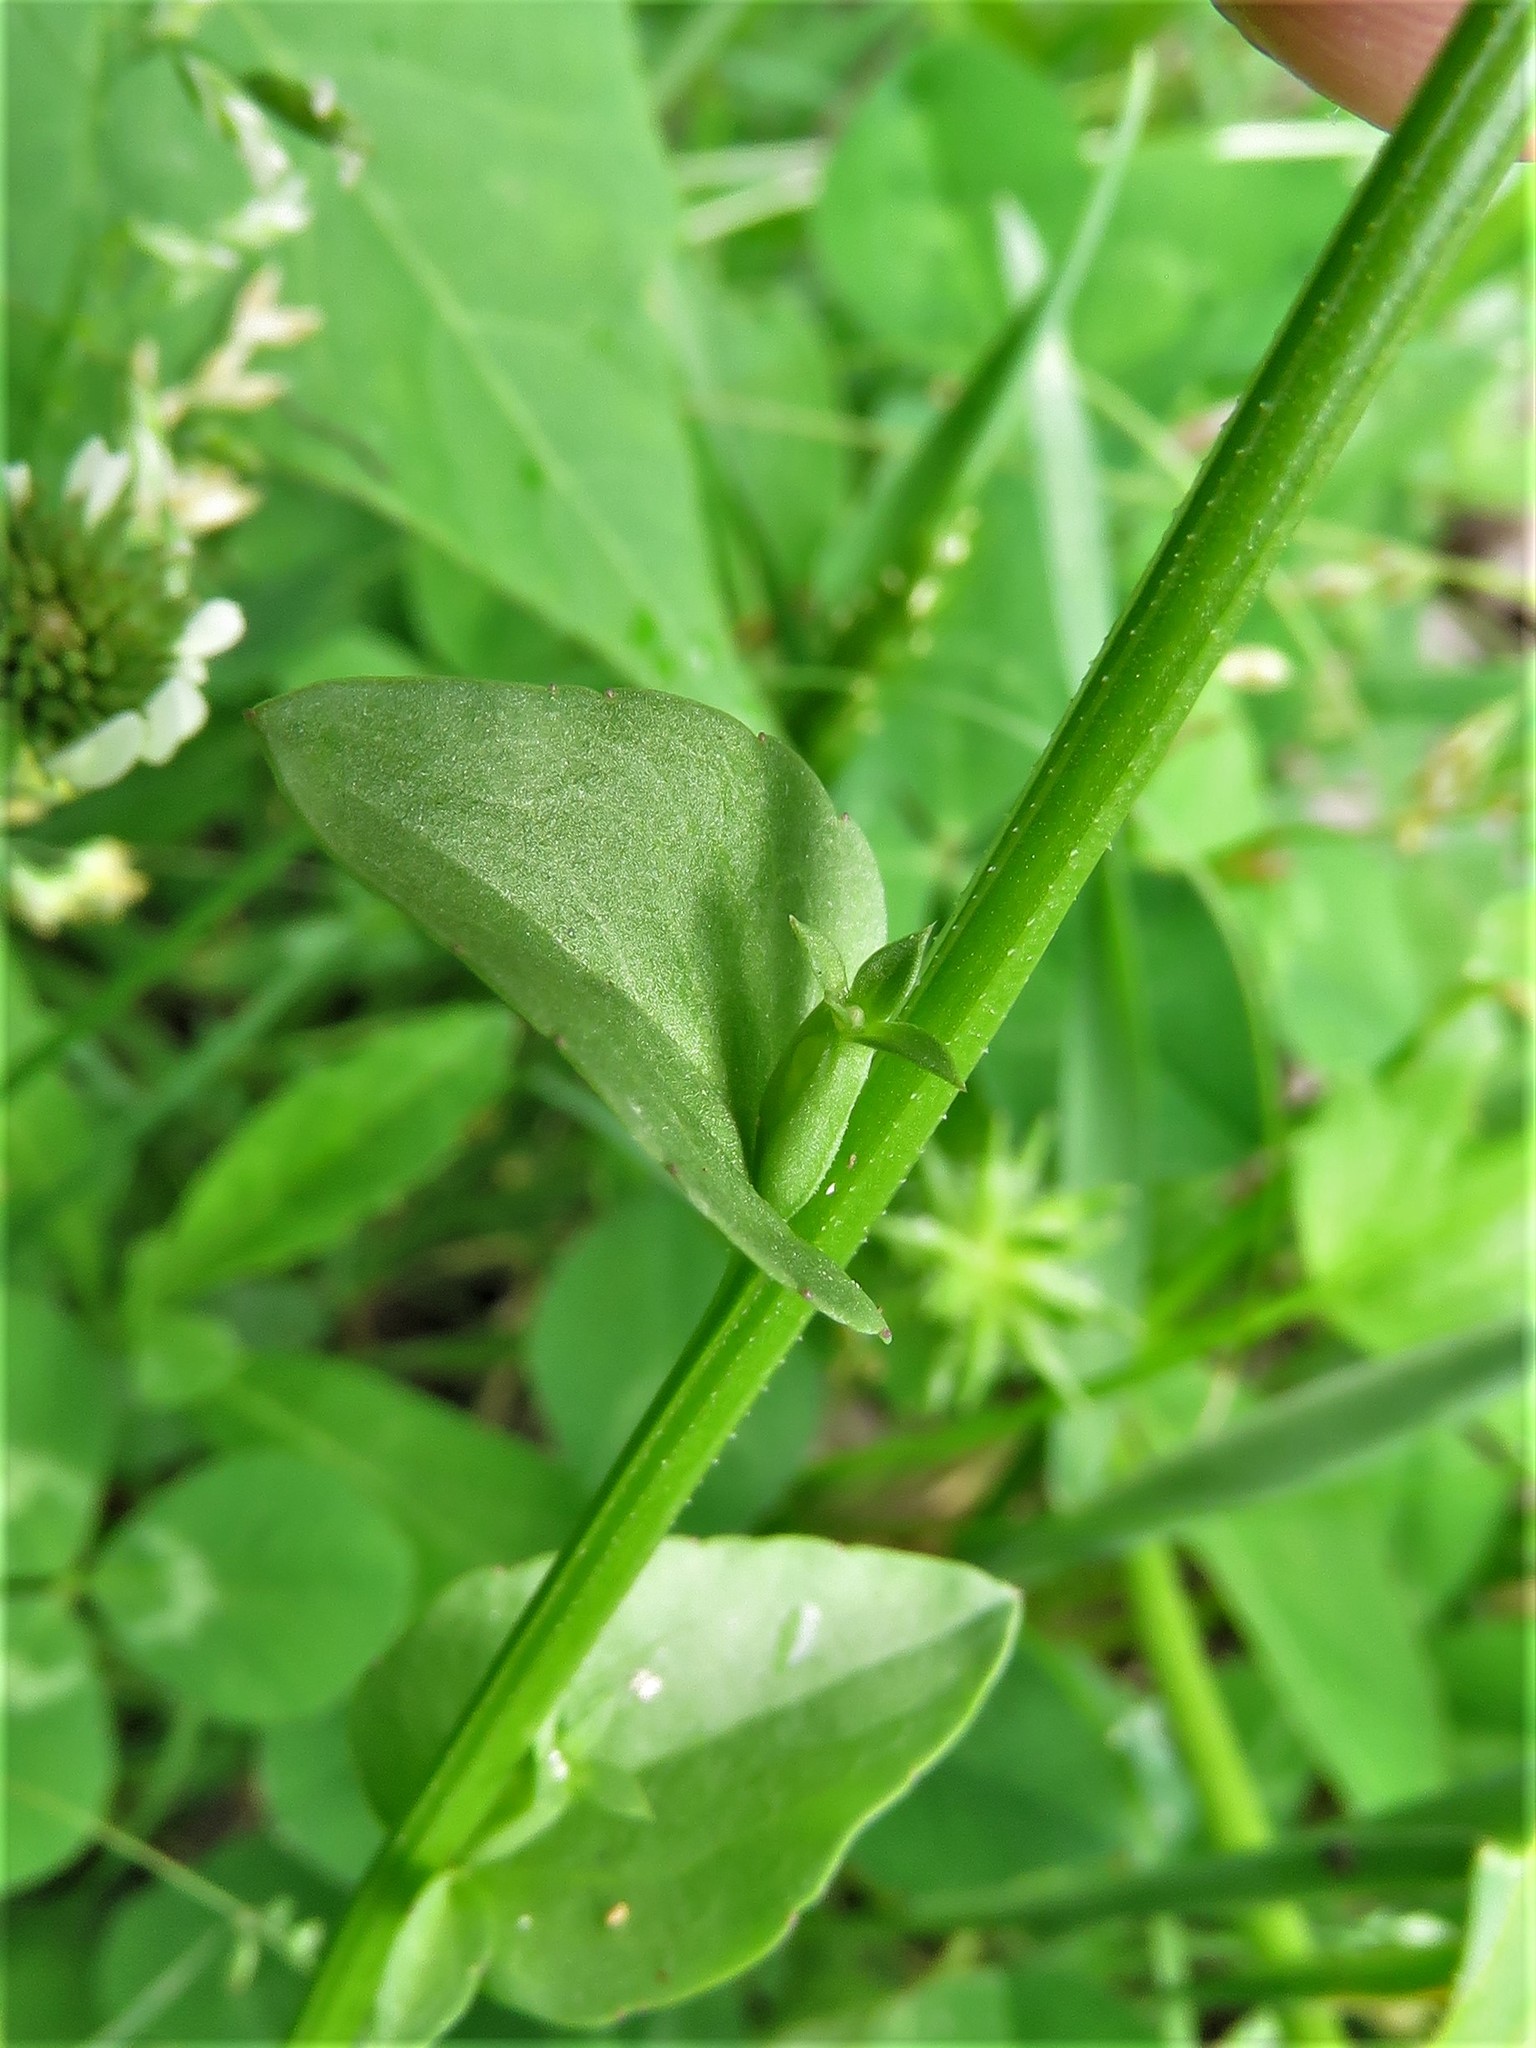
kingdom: Plantae
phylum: Tracheophyta
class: Magnoliopsida
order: Asterales
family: Campanulaceae
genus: Triodanis
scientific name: Triodanis biflora
